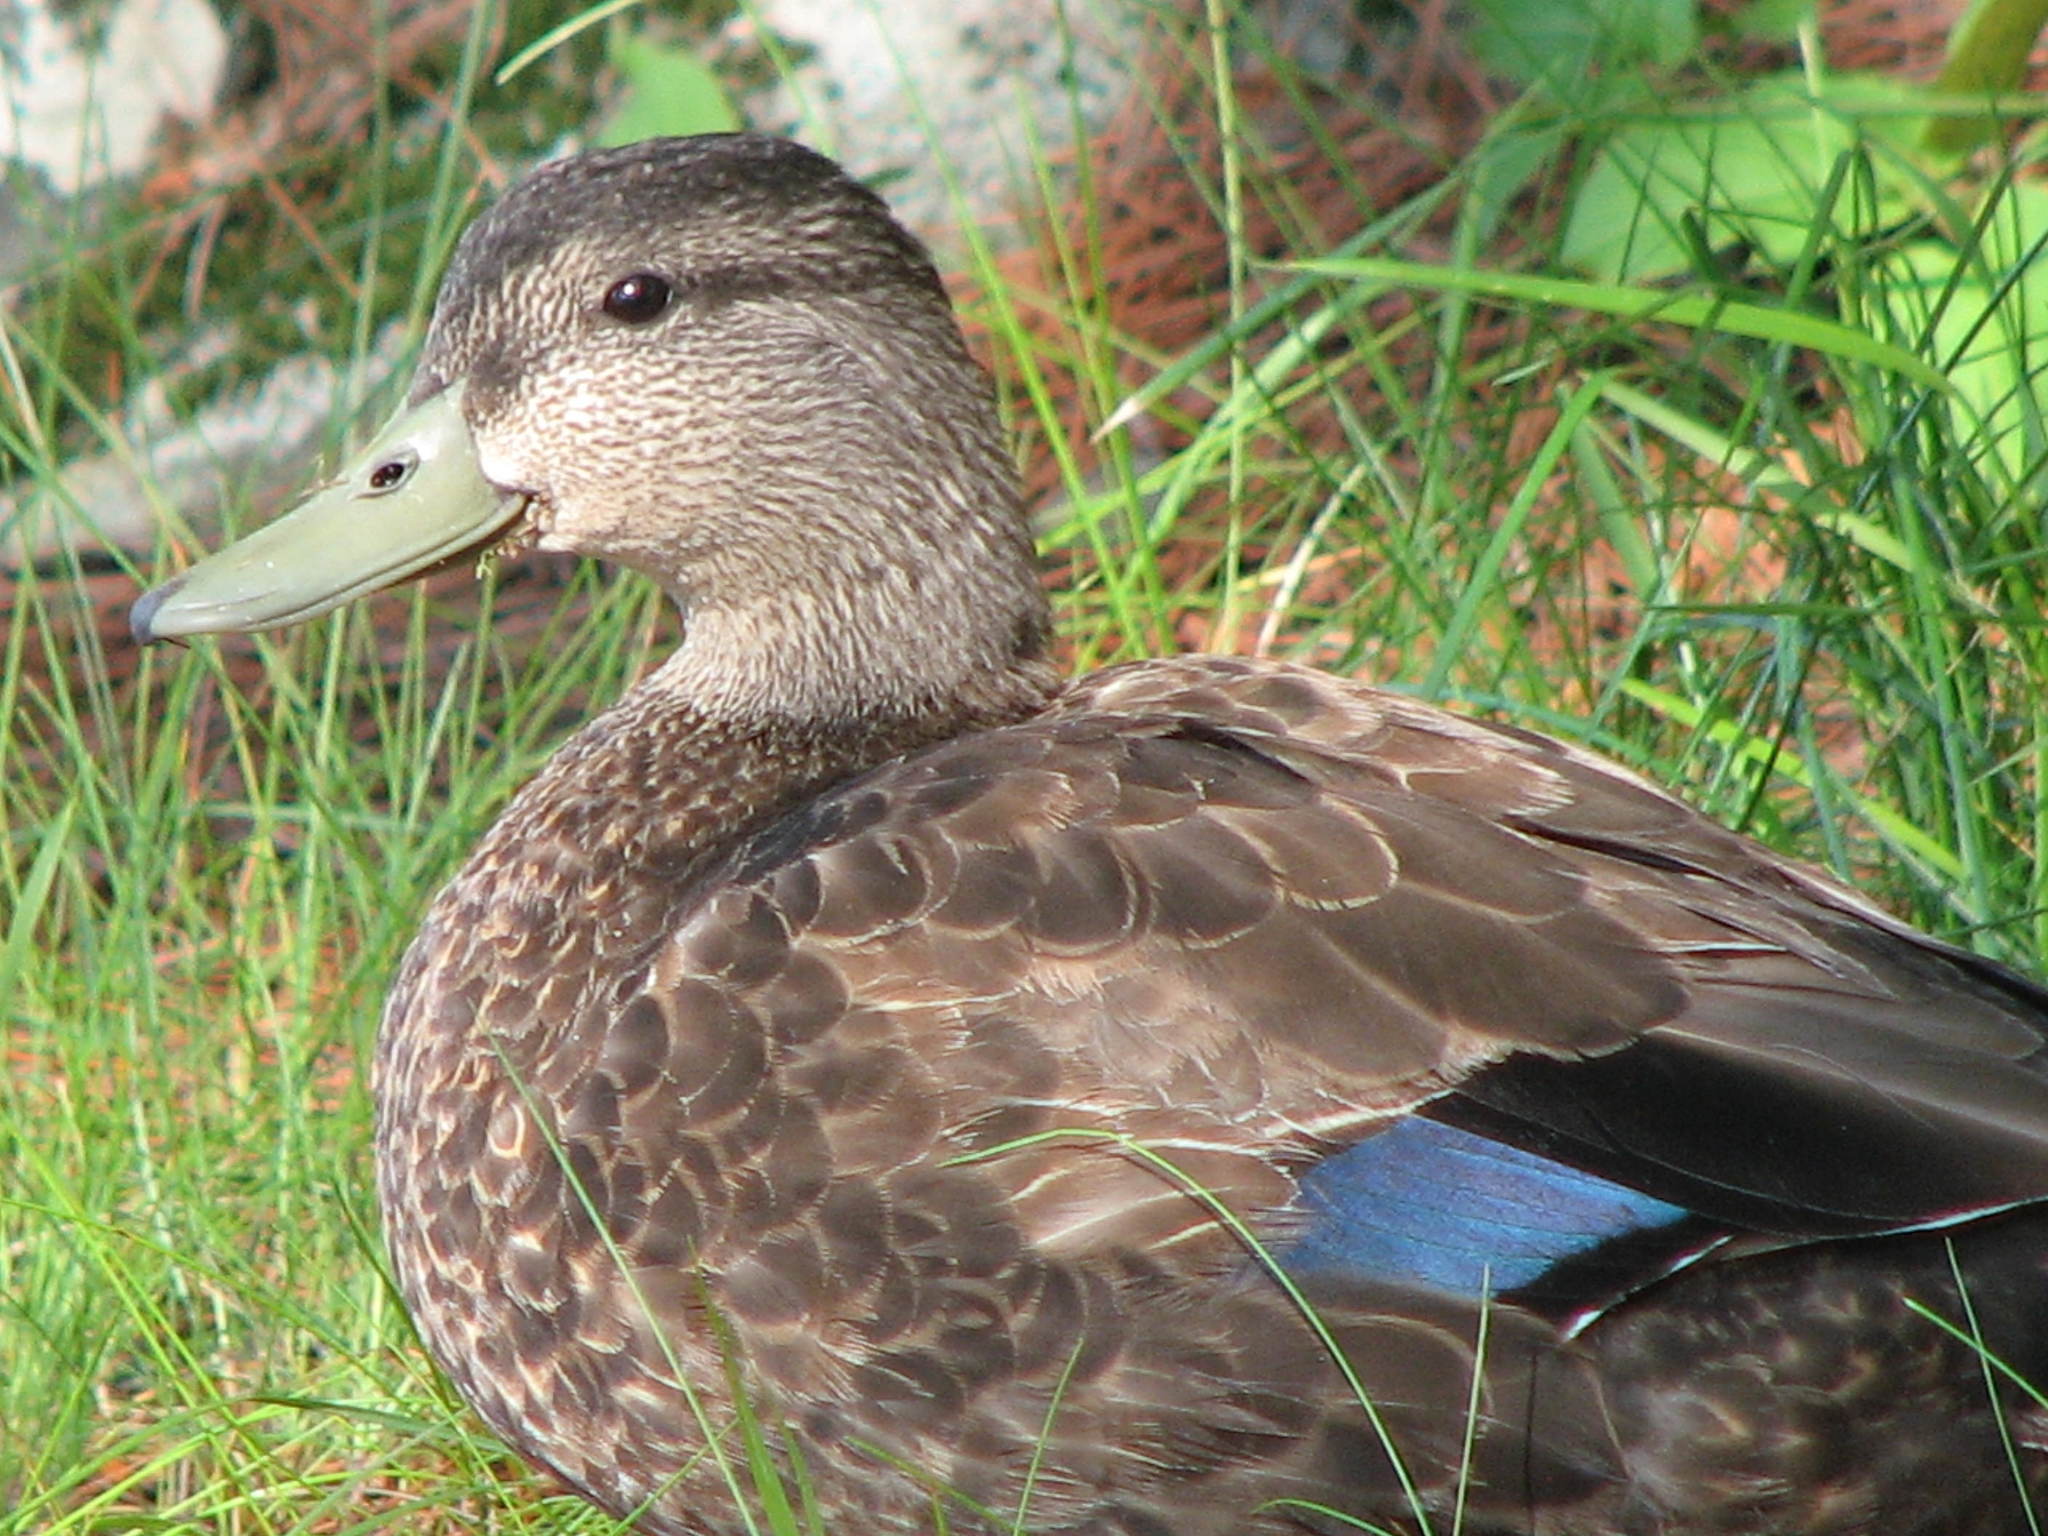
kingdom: Animalia
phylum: Chordata
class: Aves
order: Anseriformes
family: Anatidae
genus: Anas
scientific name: Anas rubripes
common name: American black duck
